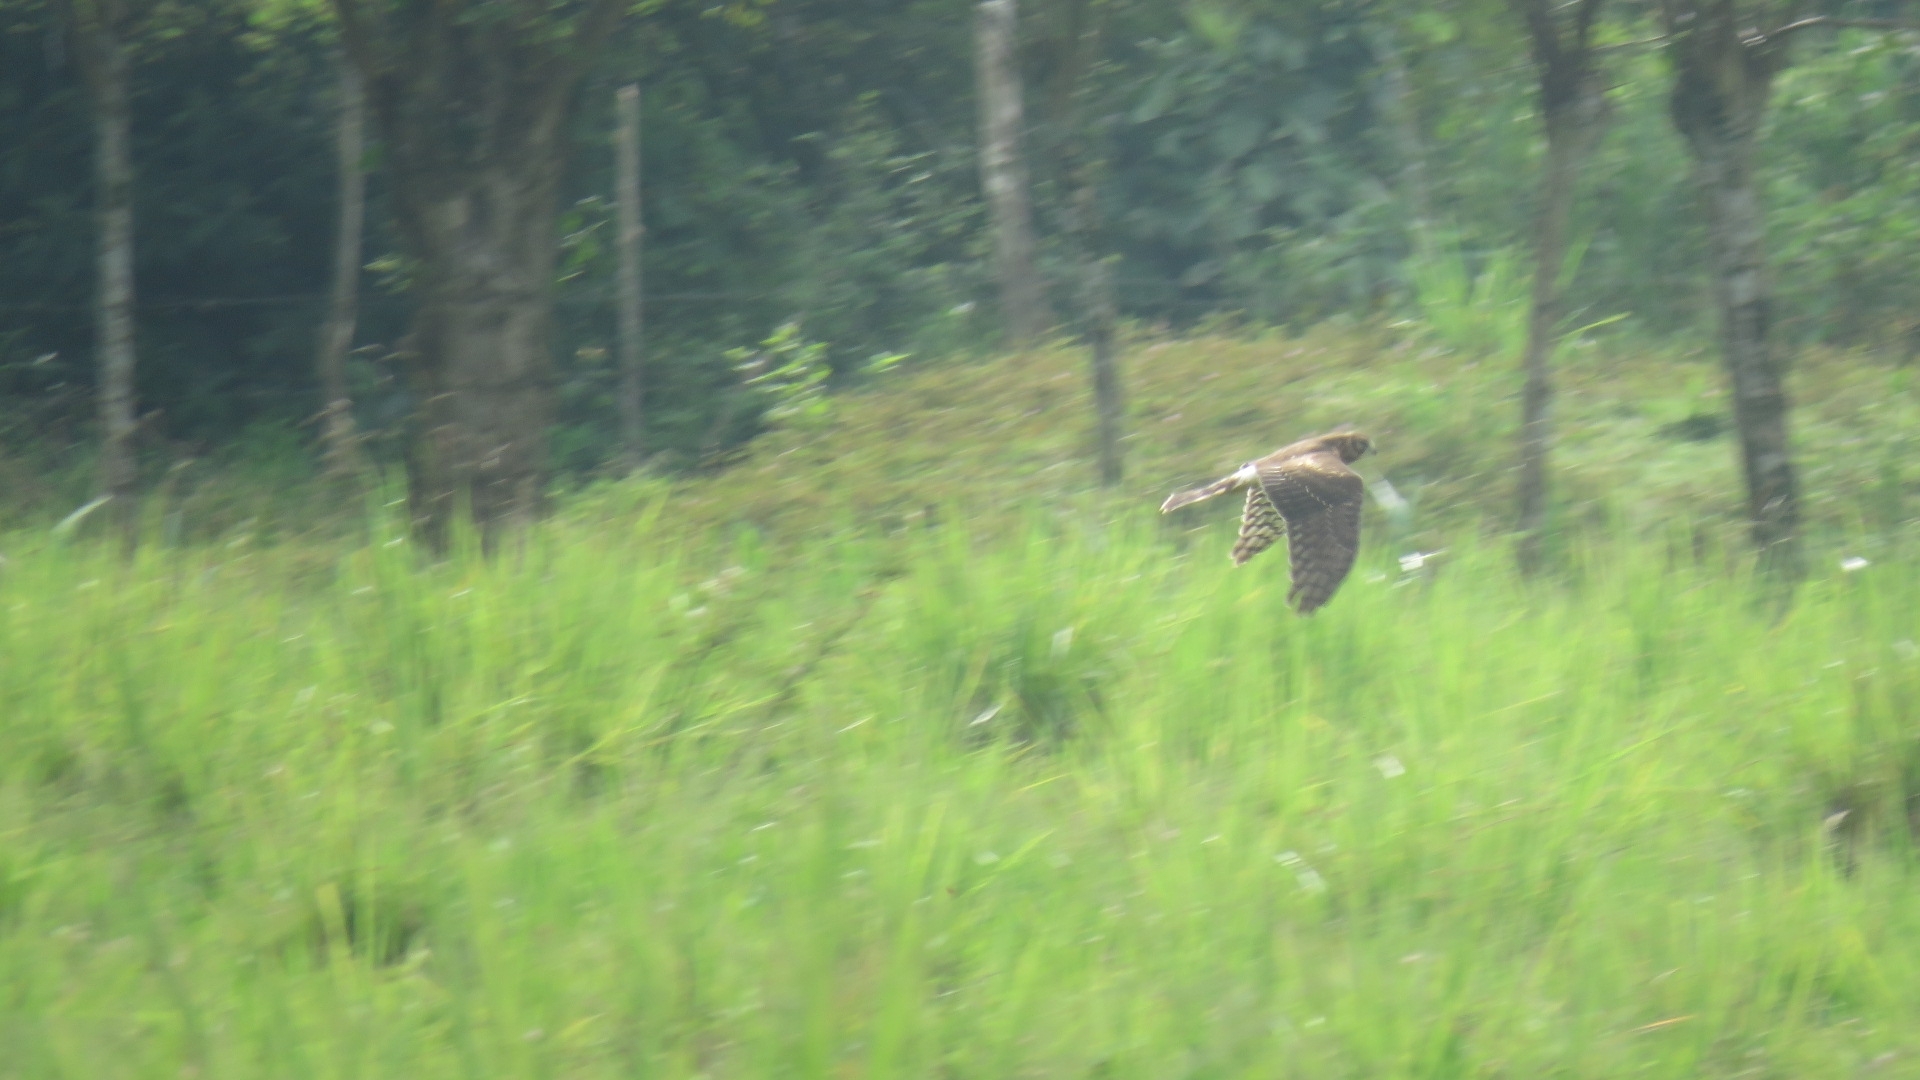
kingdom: Animalia
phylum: Chordata
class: Aves
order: Accipitriformes
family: Accipitridae
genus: Circus
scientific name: Circus cyaneus
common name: Hen harrier
